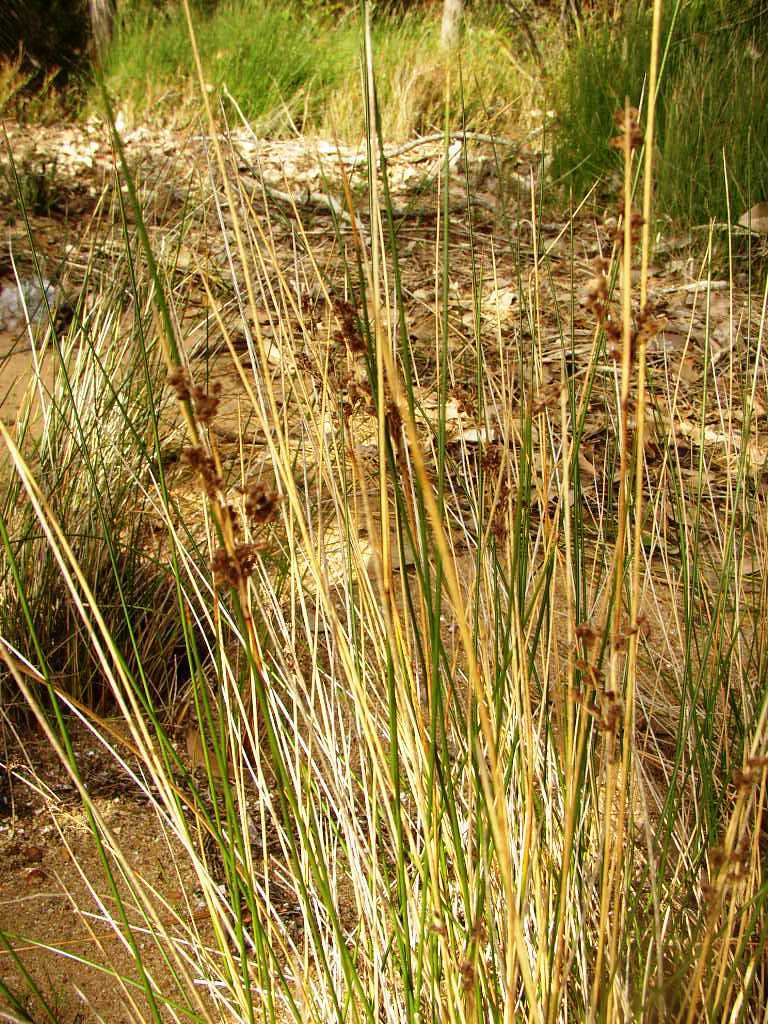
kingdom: Plantae
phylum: Tracheophyta
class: Liliopsida
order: Poales
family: Juncaceae
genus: Juncus
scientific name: Juncus kraussii
